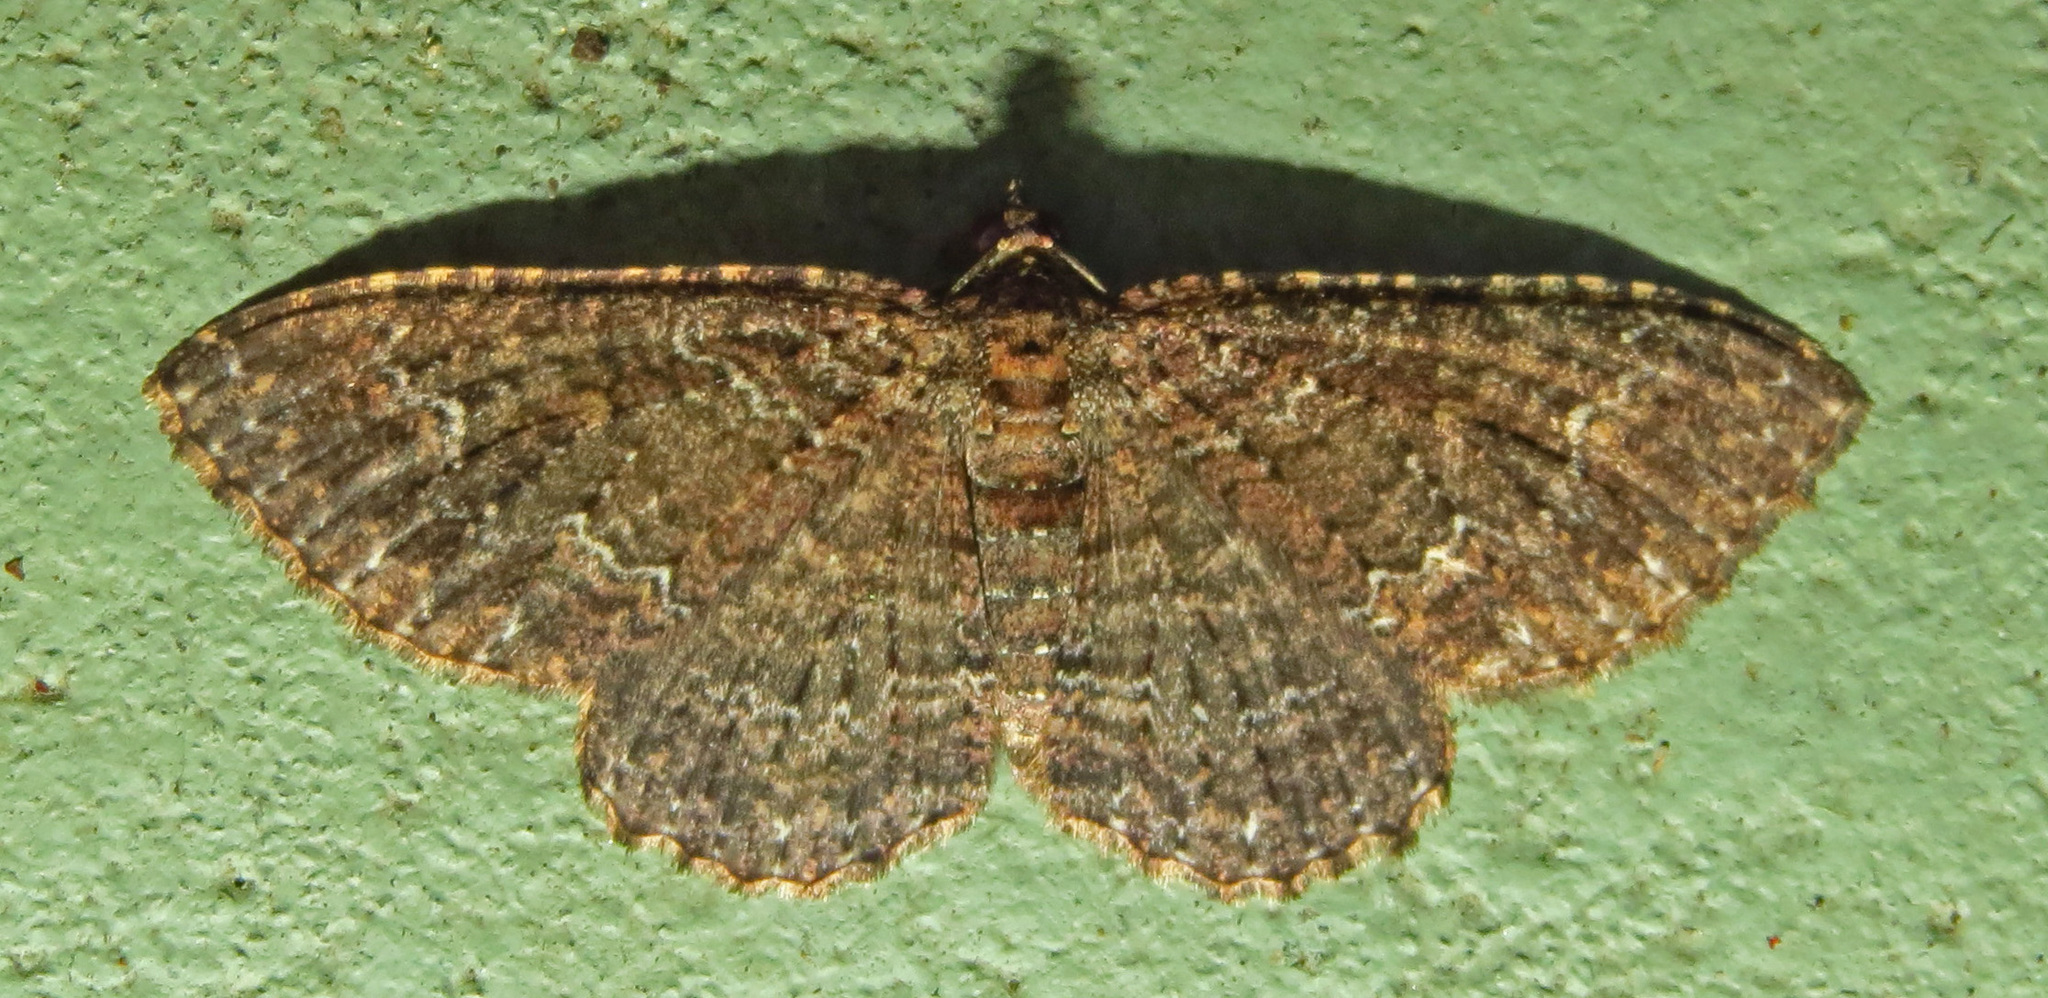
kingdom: Animalia
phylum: Arthropoda
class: Insecta
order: Lepidoptera
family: Geometridae
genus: Disclisioprocta
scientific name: Disclisioprocta stellata
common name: Somber carpet
